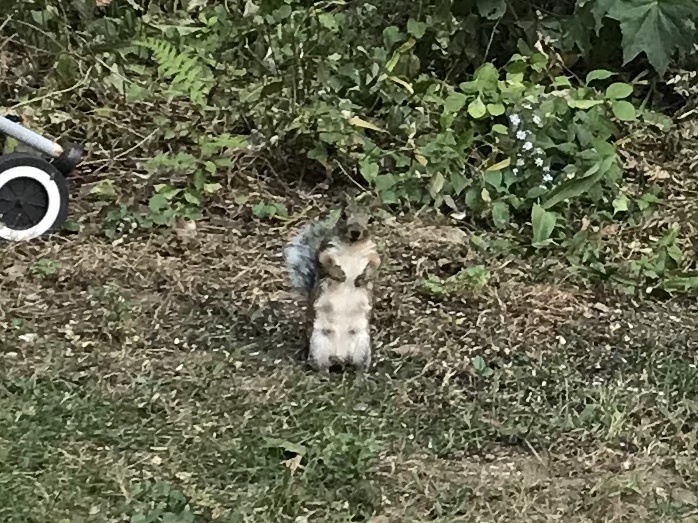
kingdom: Animalia
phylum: Chordata
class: Mammalia
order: Rodentia
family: Sciuridae
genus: Sciurus
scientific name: Sciurus carolinensis
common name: Eastern gray squirrel
